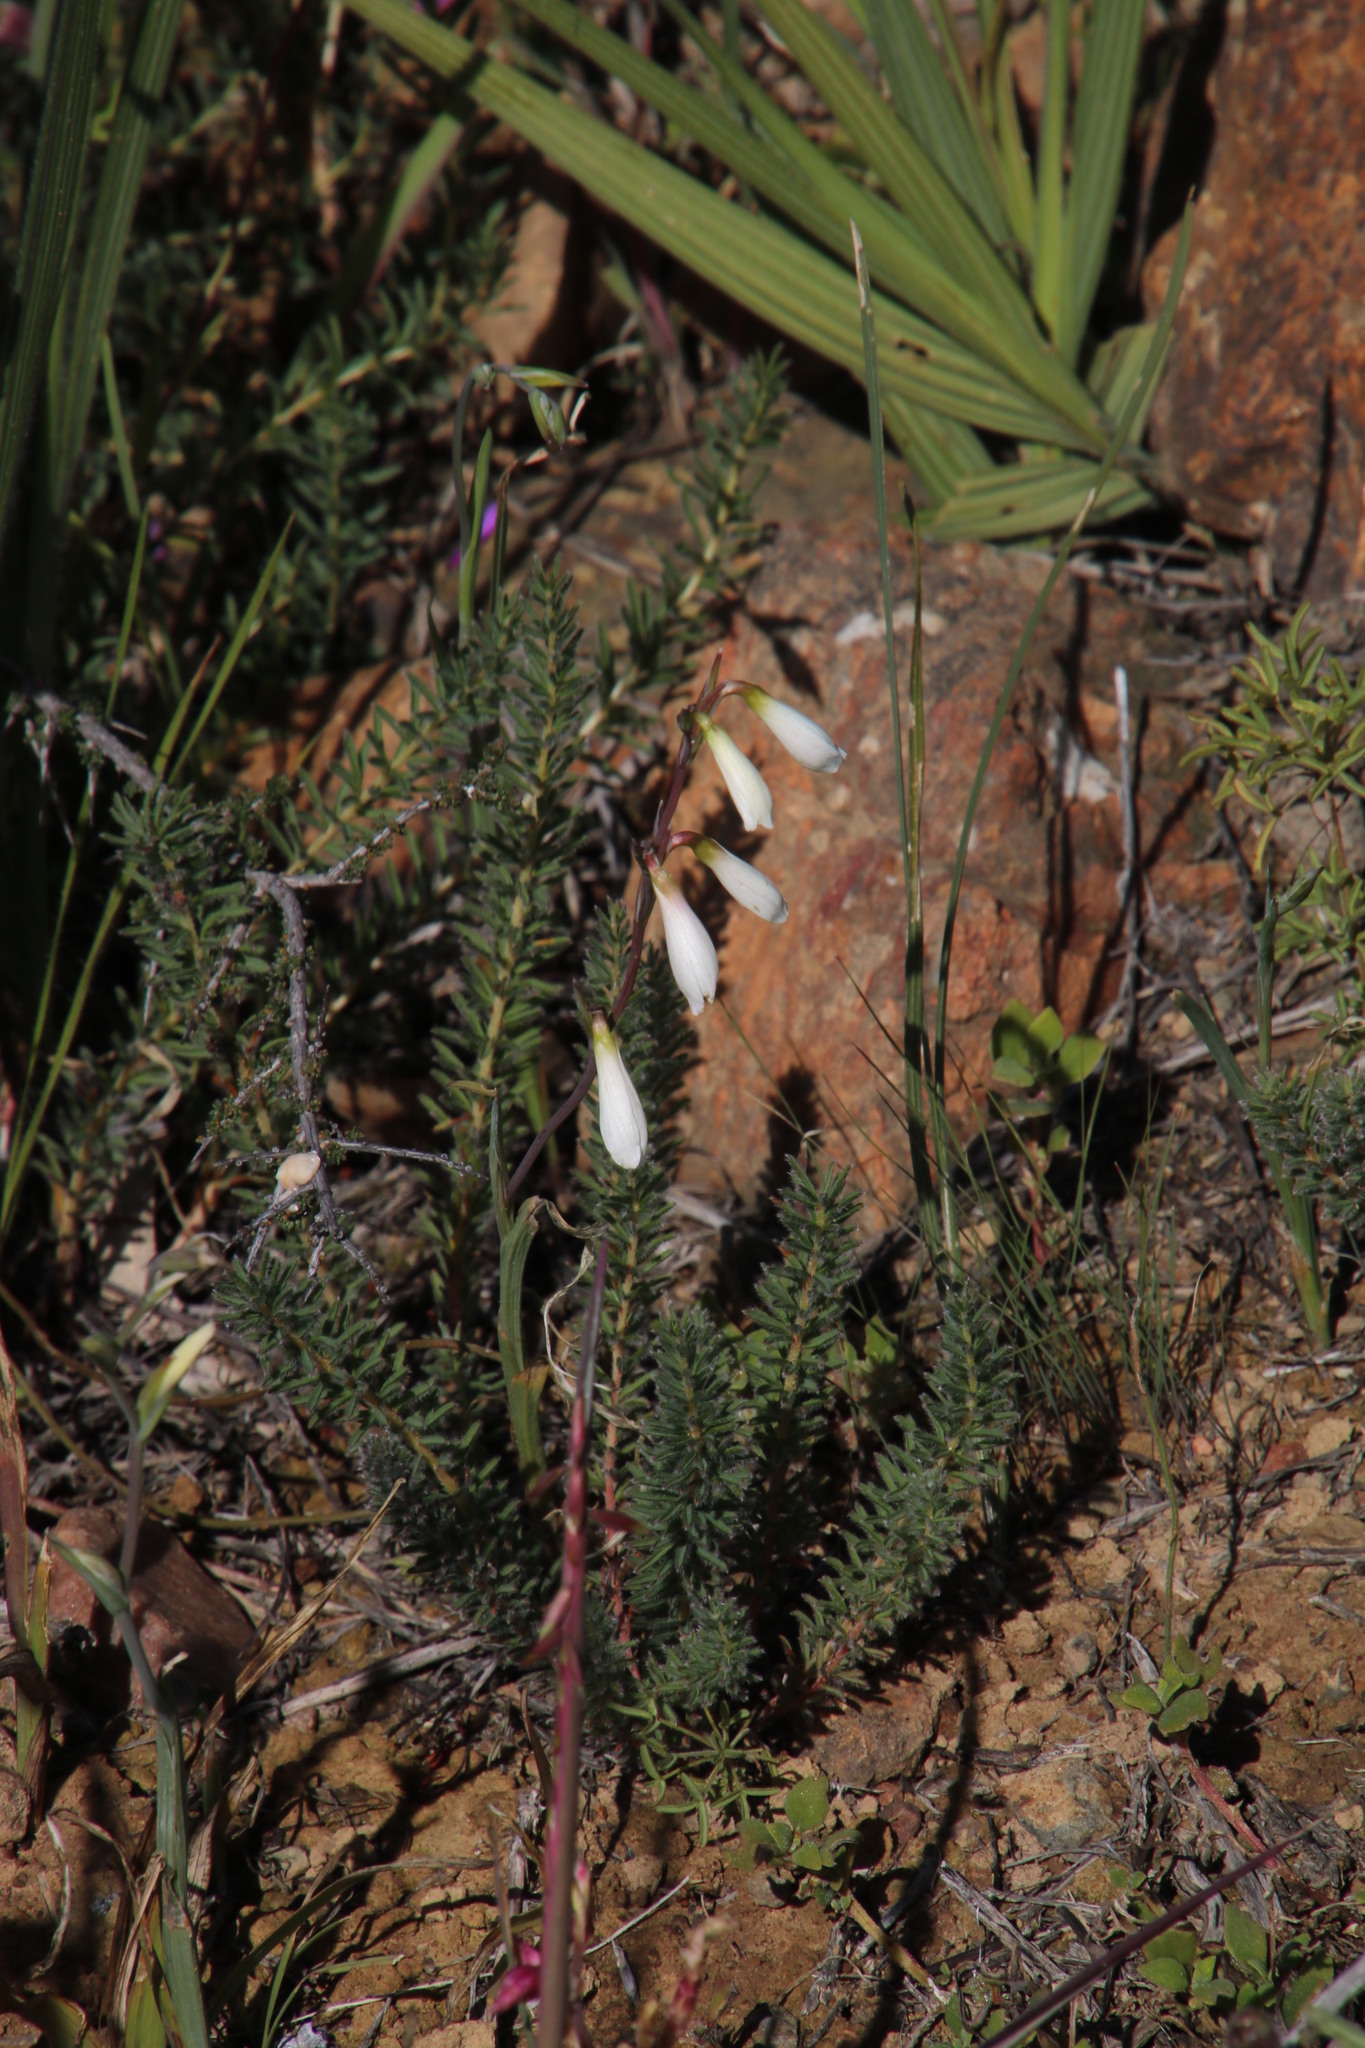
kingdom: Plantae
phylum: Tracheophyta
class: Liliopsida
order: Asparagales
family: Iridaceae
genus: Hesperantha
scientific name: Hesperantha bachmannii
